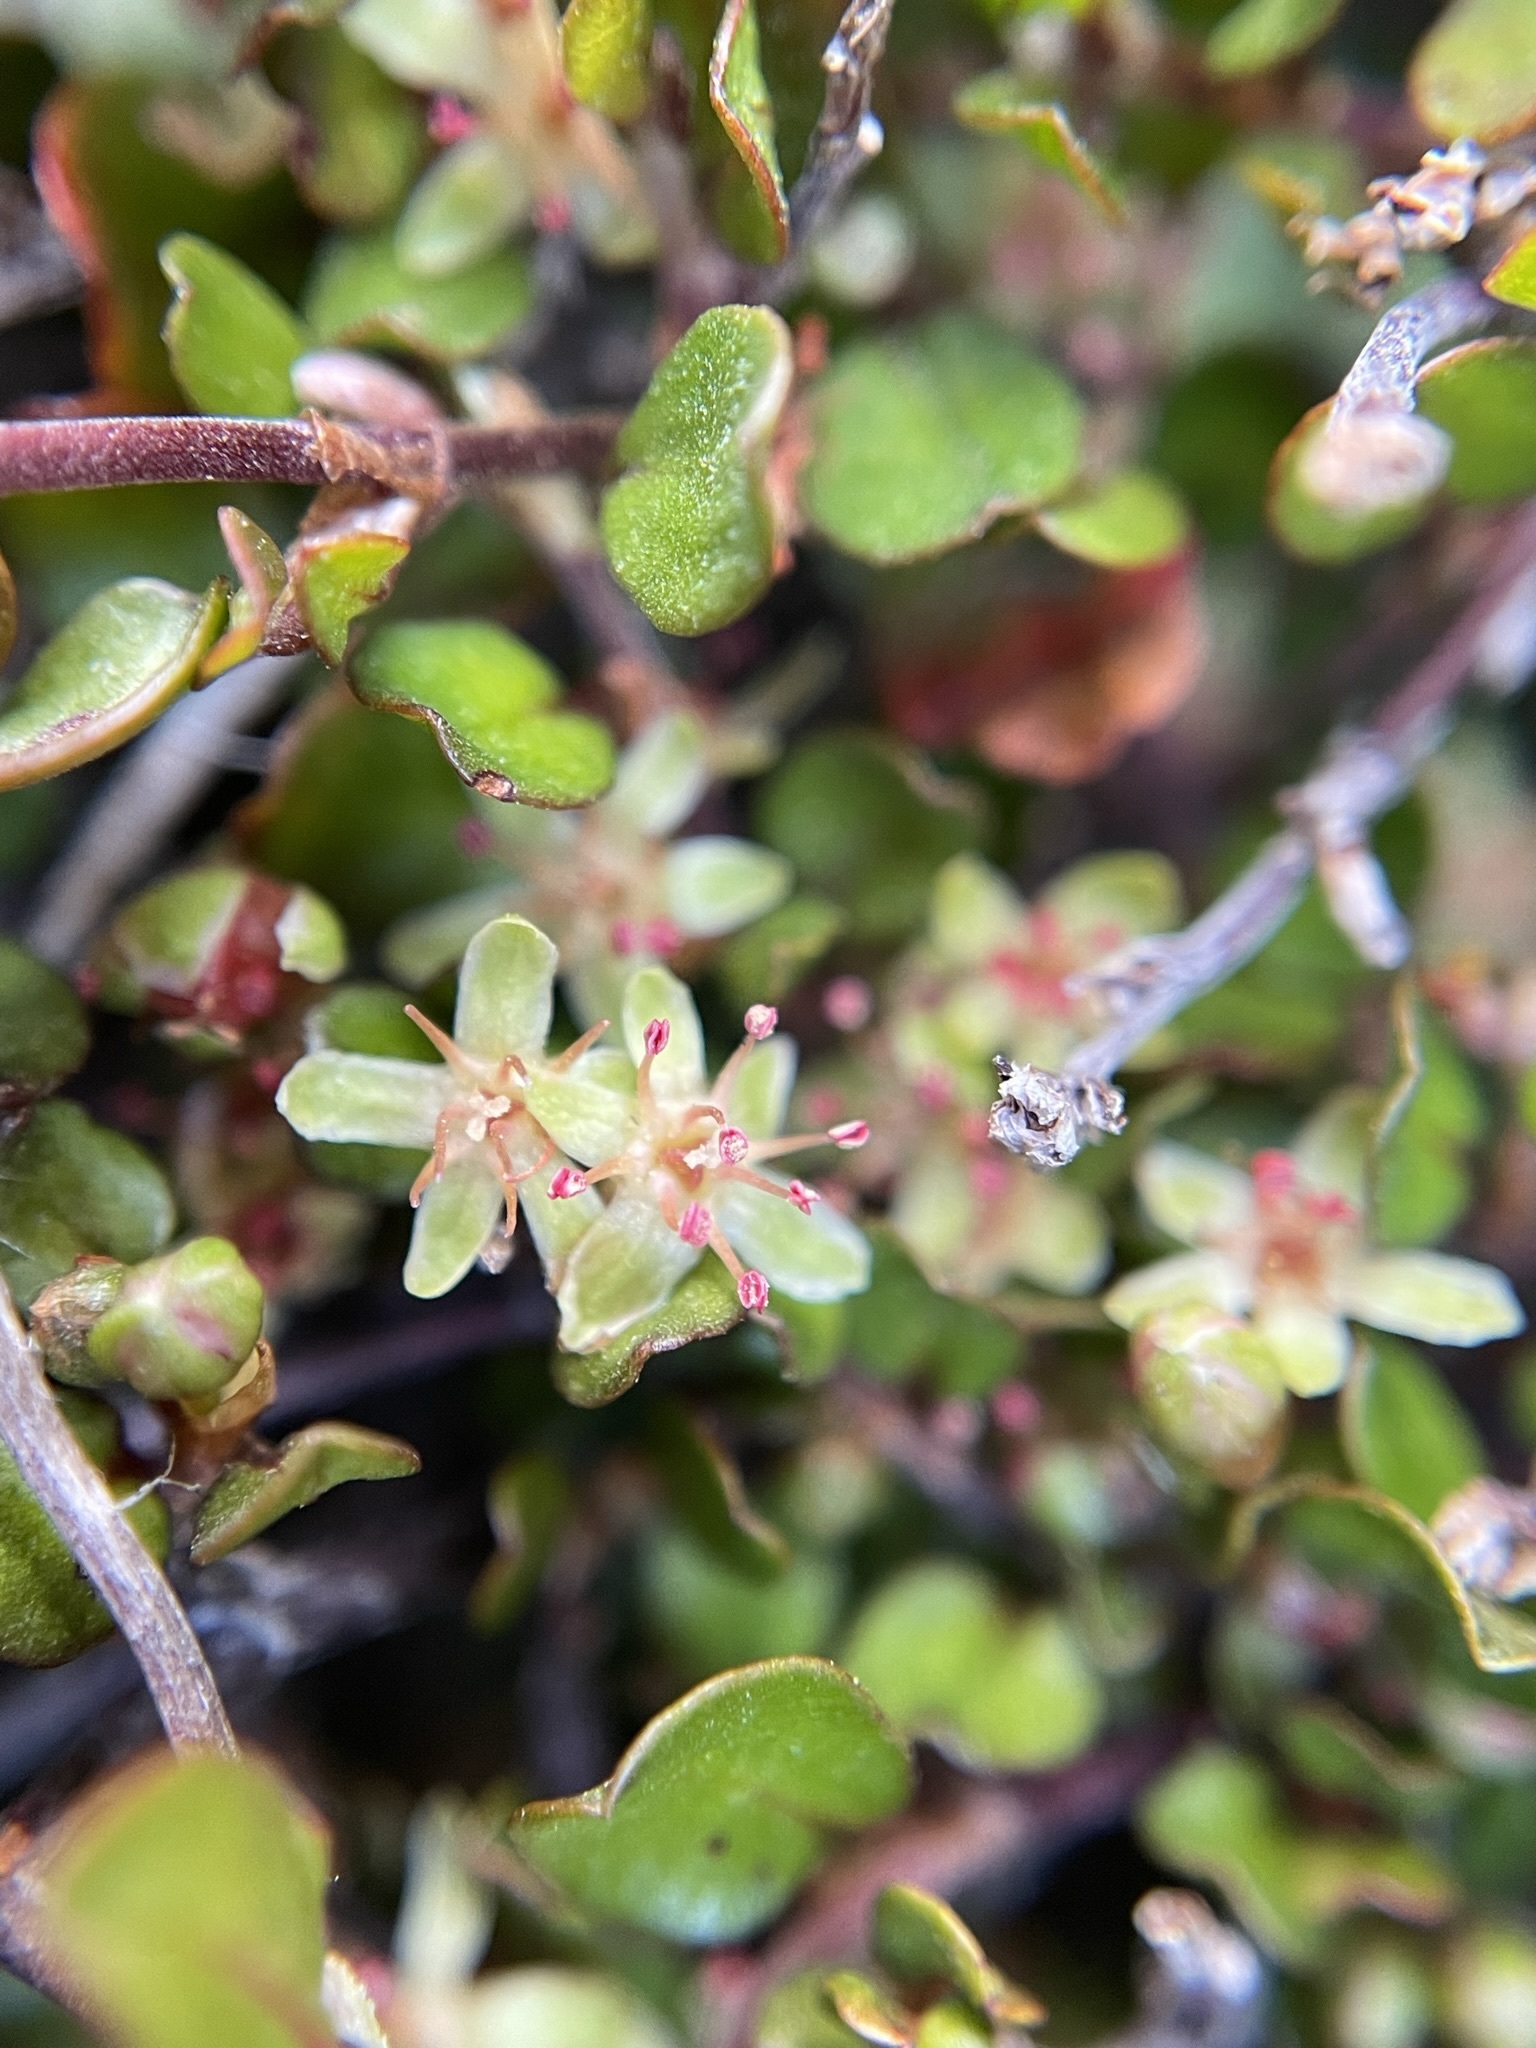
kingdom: Plantae
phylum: Tracheophyta
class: Magnoliopsida
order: Caryophyllales
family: Polygonaceae
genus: Muehlenbeckia
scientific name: Muehlenbeckia axillaris
